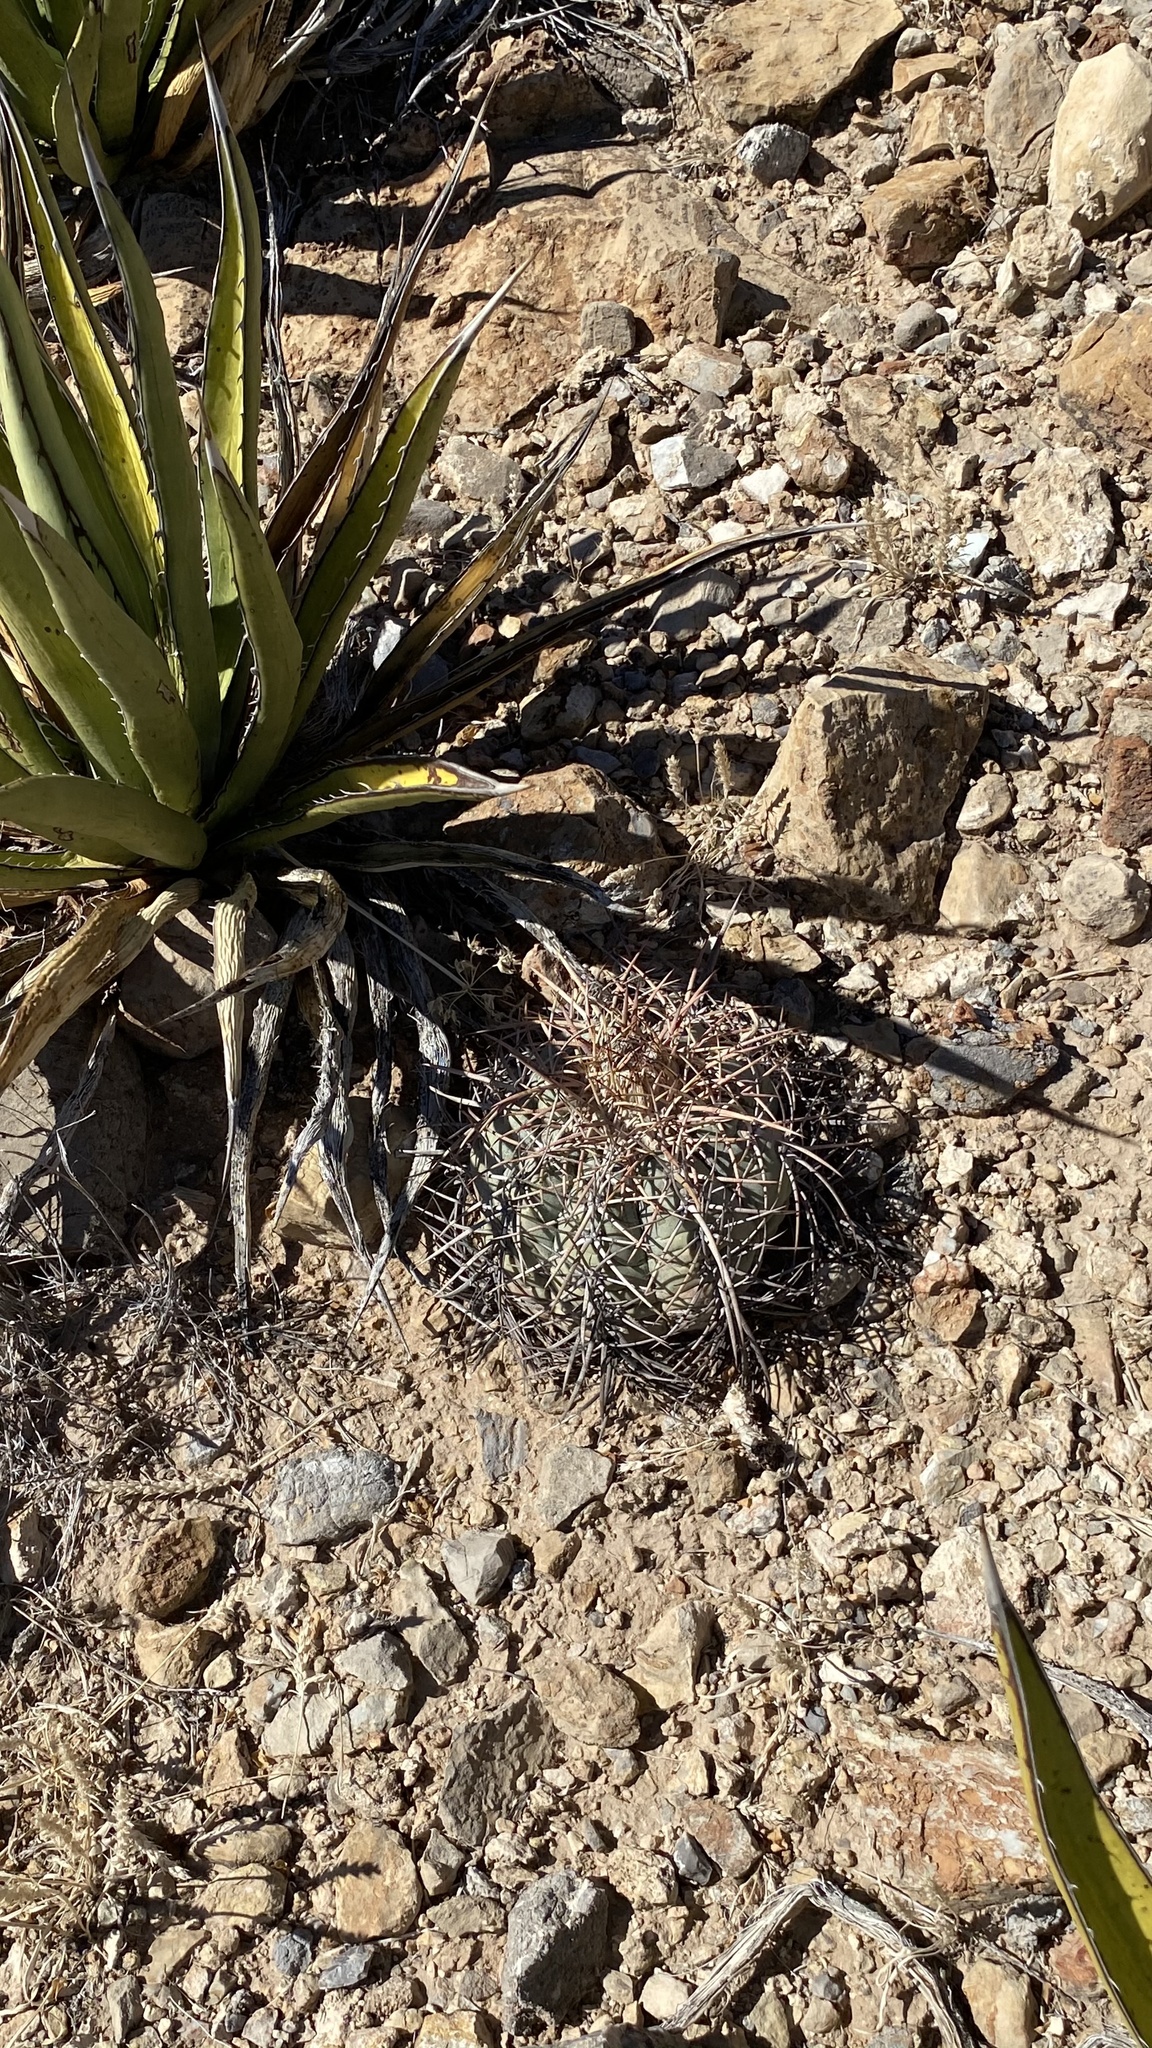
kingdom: Plantae
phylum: Tracheophyta
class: Magnoliopsida
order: Caryophyllales
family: Cactaceae
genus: Echinocactus
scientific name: Echinocactus horizonthalonius
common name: Devilshead
